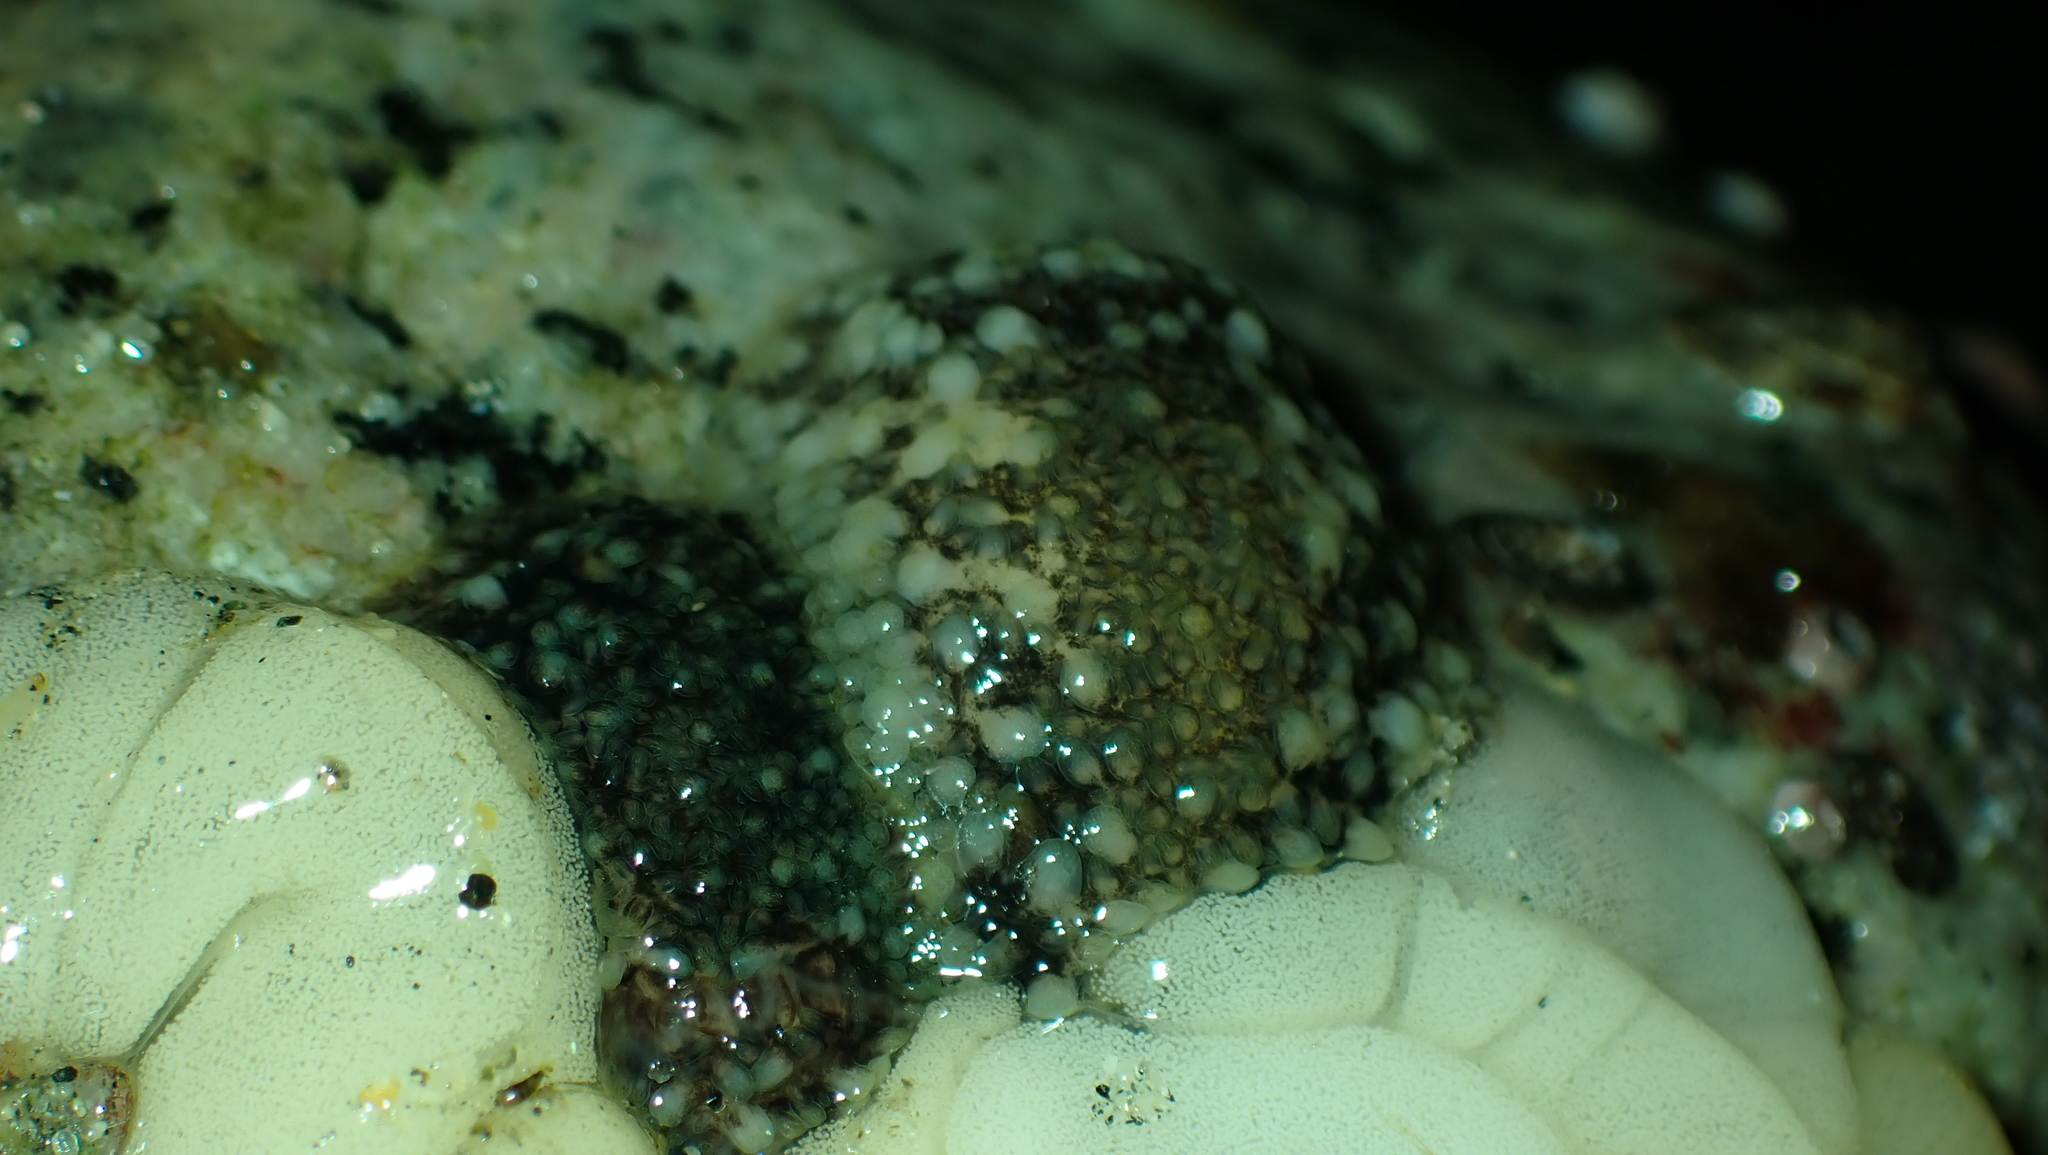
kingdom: Animalia
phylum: Mollusca
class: Gastropoda
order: Nudibranchia
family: Onchidorididae
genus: Onchidoris
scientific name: Onchidoris bilamellata
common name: Barnacle-eating onchidoris
